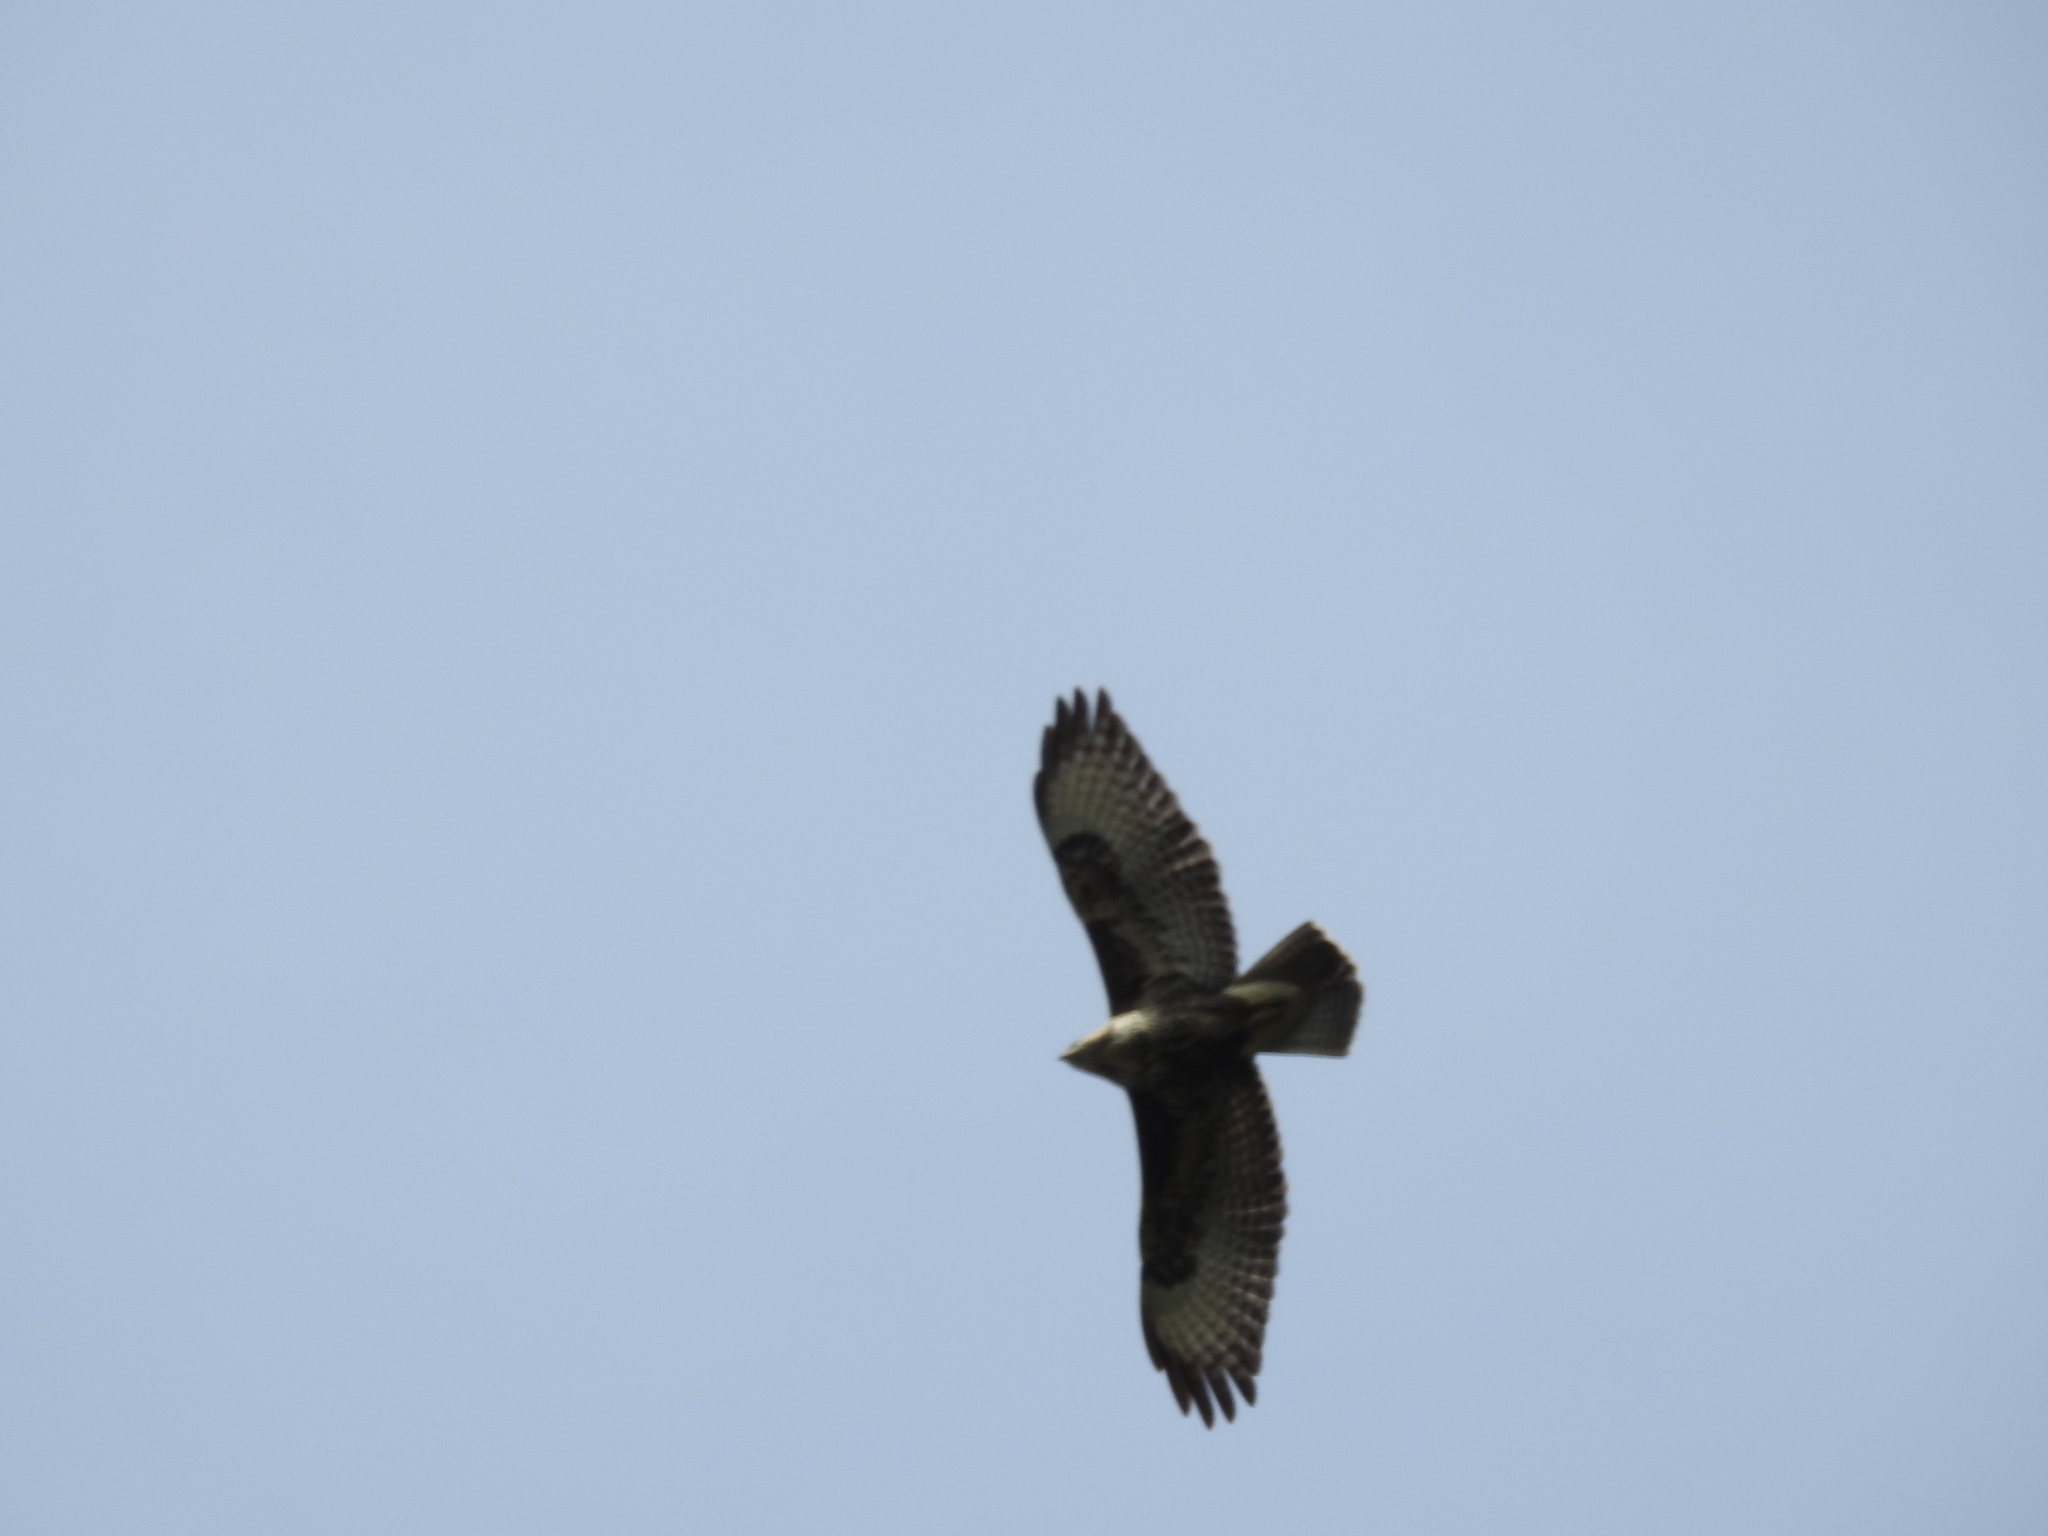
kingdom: Animalia
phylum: Chordata
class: Aves
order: Accipitriformes
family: Accipitridae
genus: Buteo
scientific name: Buteo buteo
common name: Common buzzard
